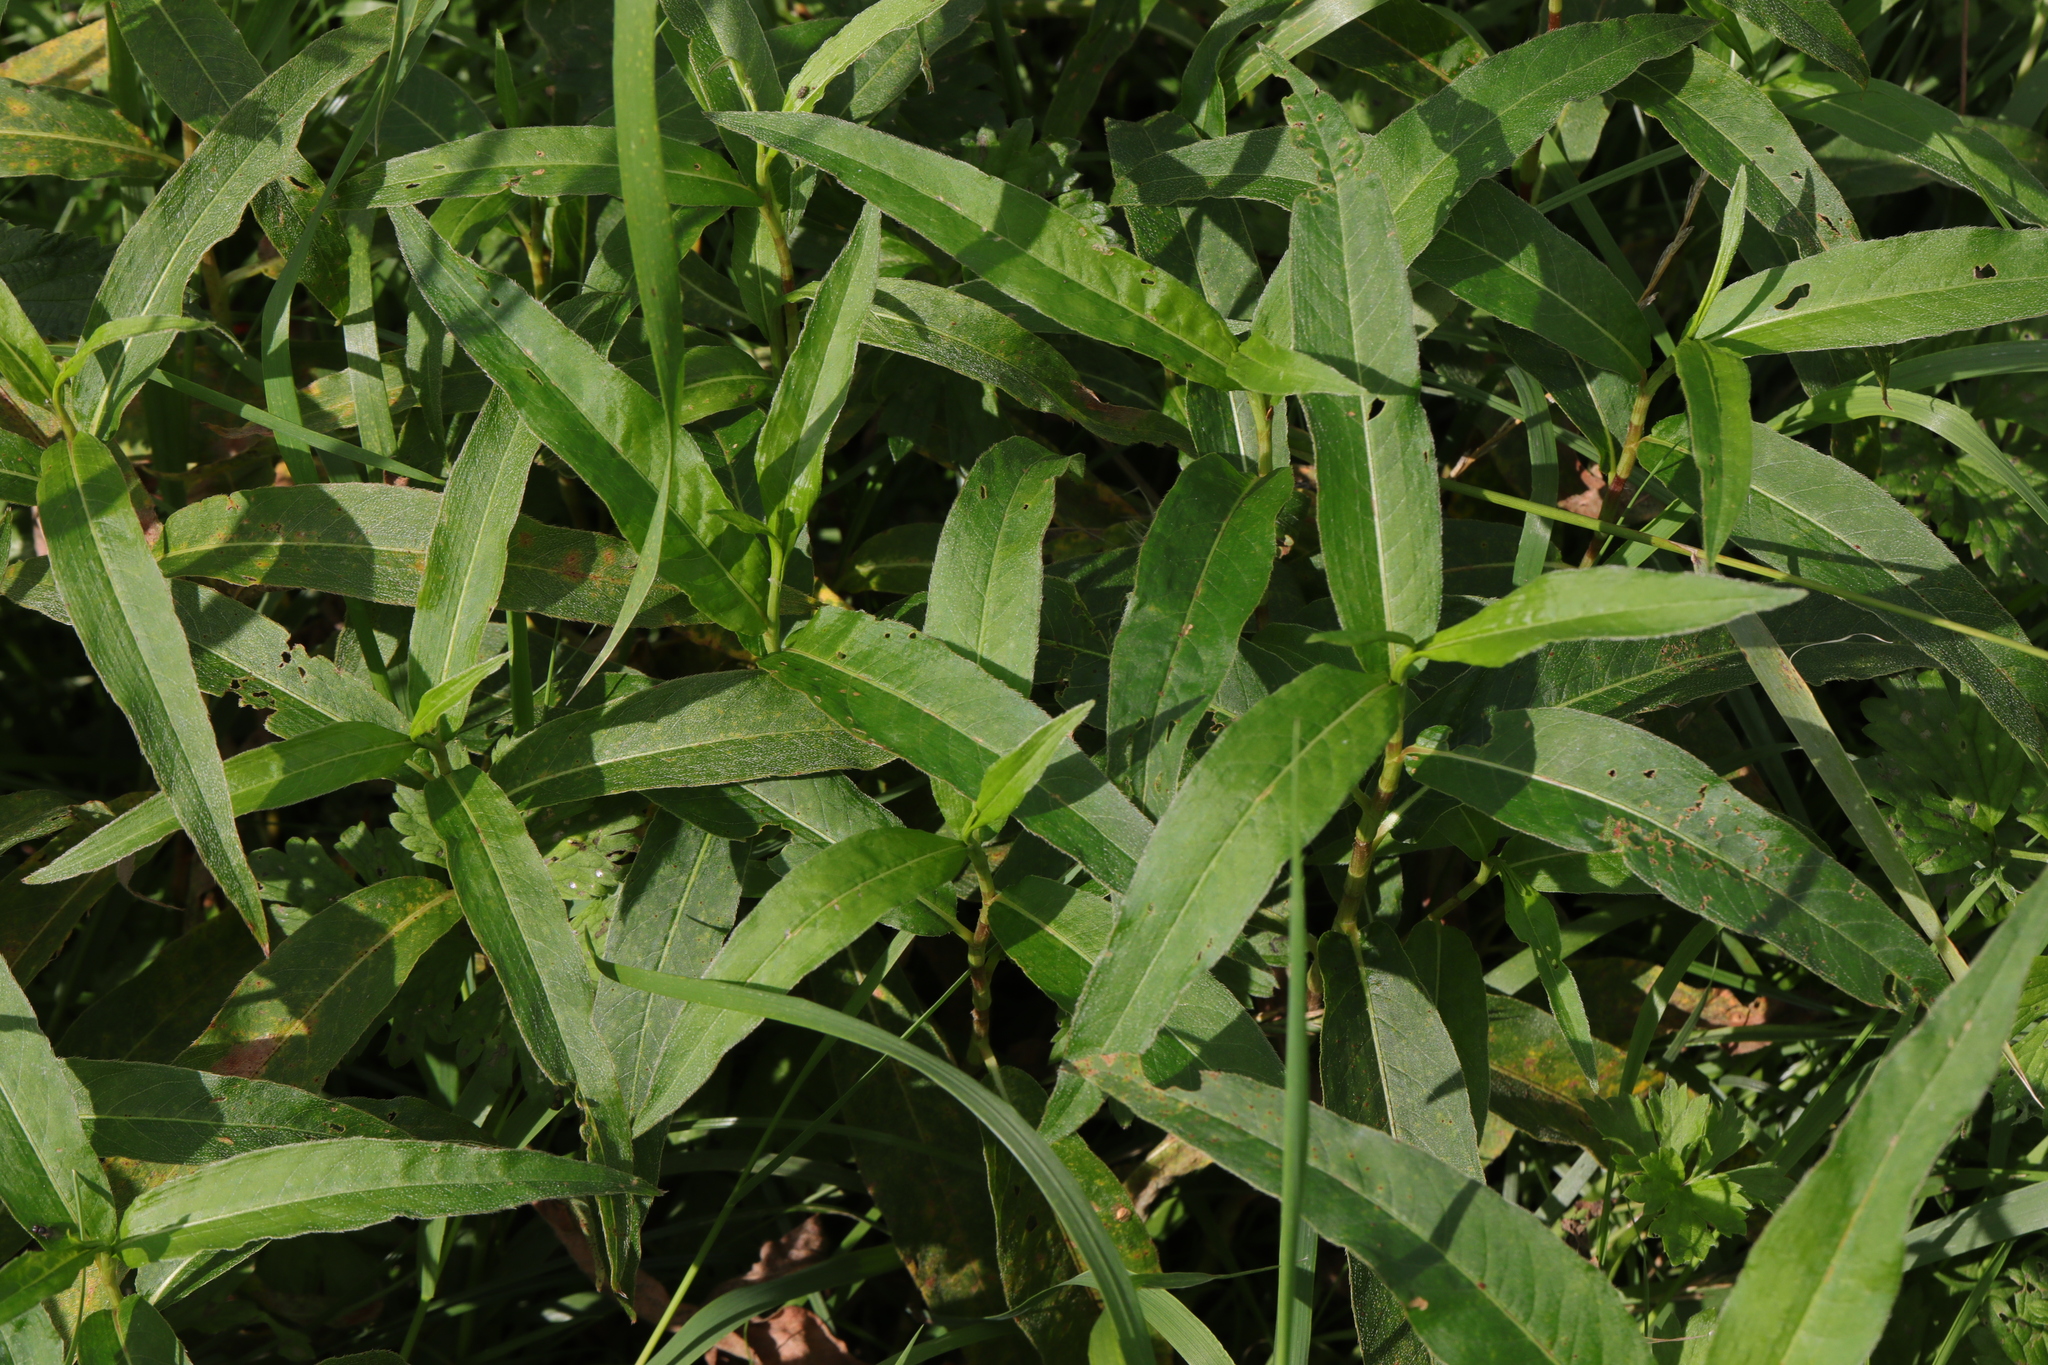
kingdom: Plantae
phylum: Tracheophyta
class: Magnoliopsida
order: Caryophyllales
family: Polygonaceae
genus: Persicaria
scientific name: Persicaria amphibia
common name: Amphibious bistort
